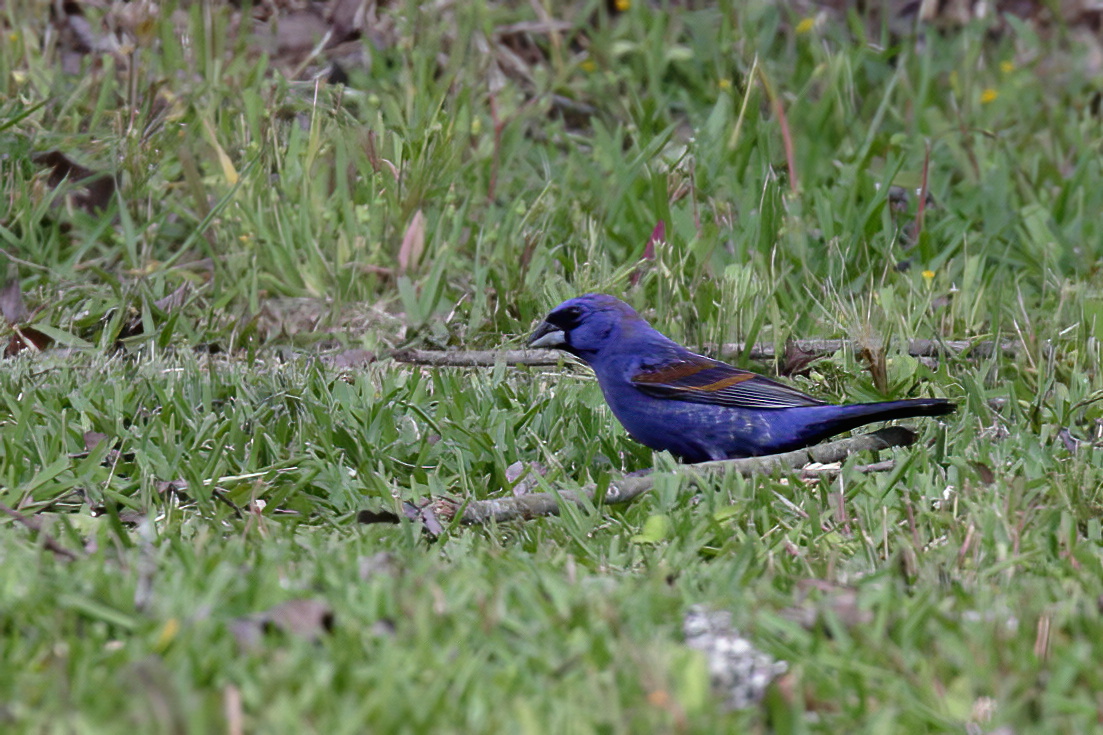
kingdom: Animalia
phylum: Chordata
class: Aves
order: Passeriformes
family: Cardinalidae
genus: Passerina
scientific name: Passerina caerulea
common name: Blue grosbeak
